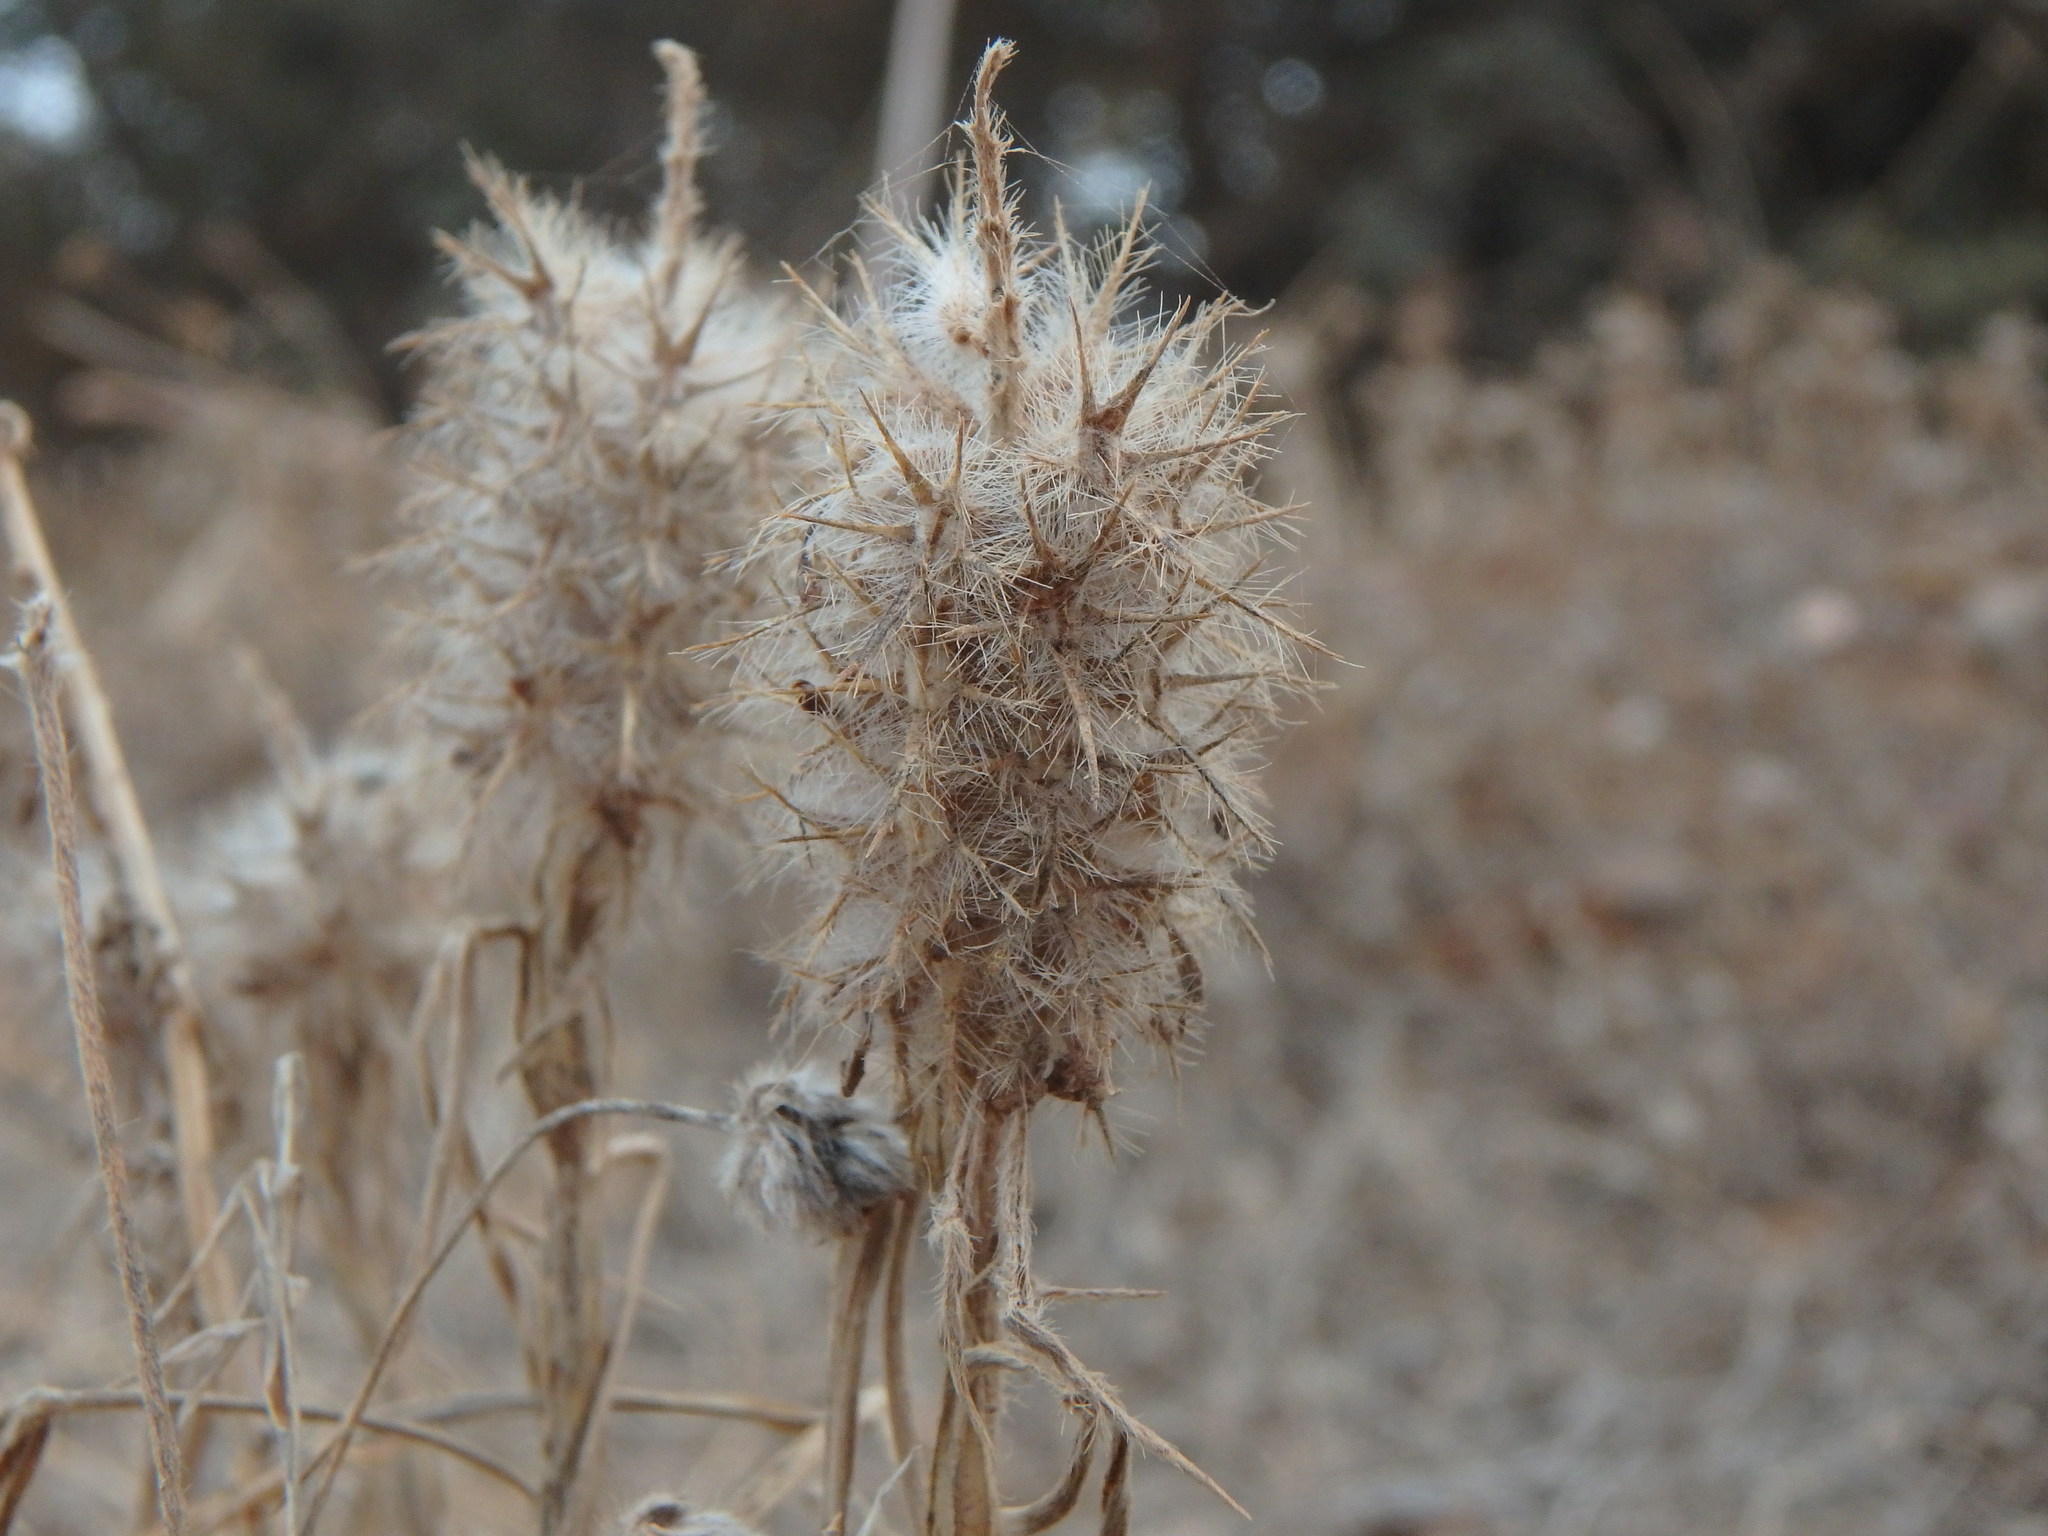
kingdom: Plantae
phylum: Tracheophyta
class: Magnoliopsida
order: Fabales
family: Fabaceae
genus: Trifolium
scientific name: Trifolium angustifolium
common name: Narrow clover
